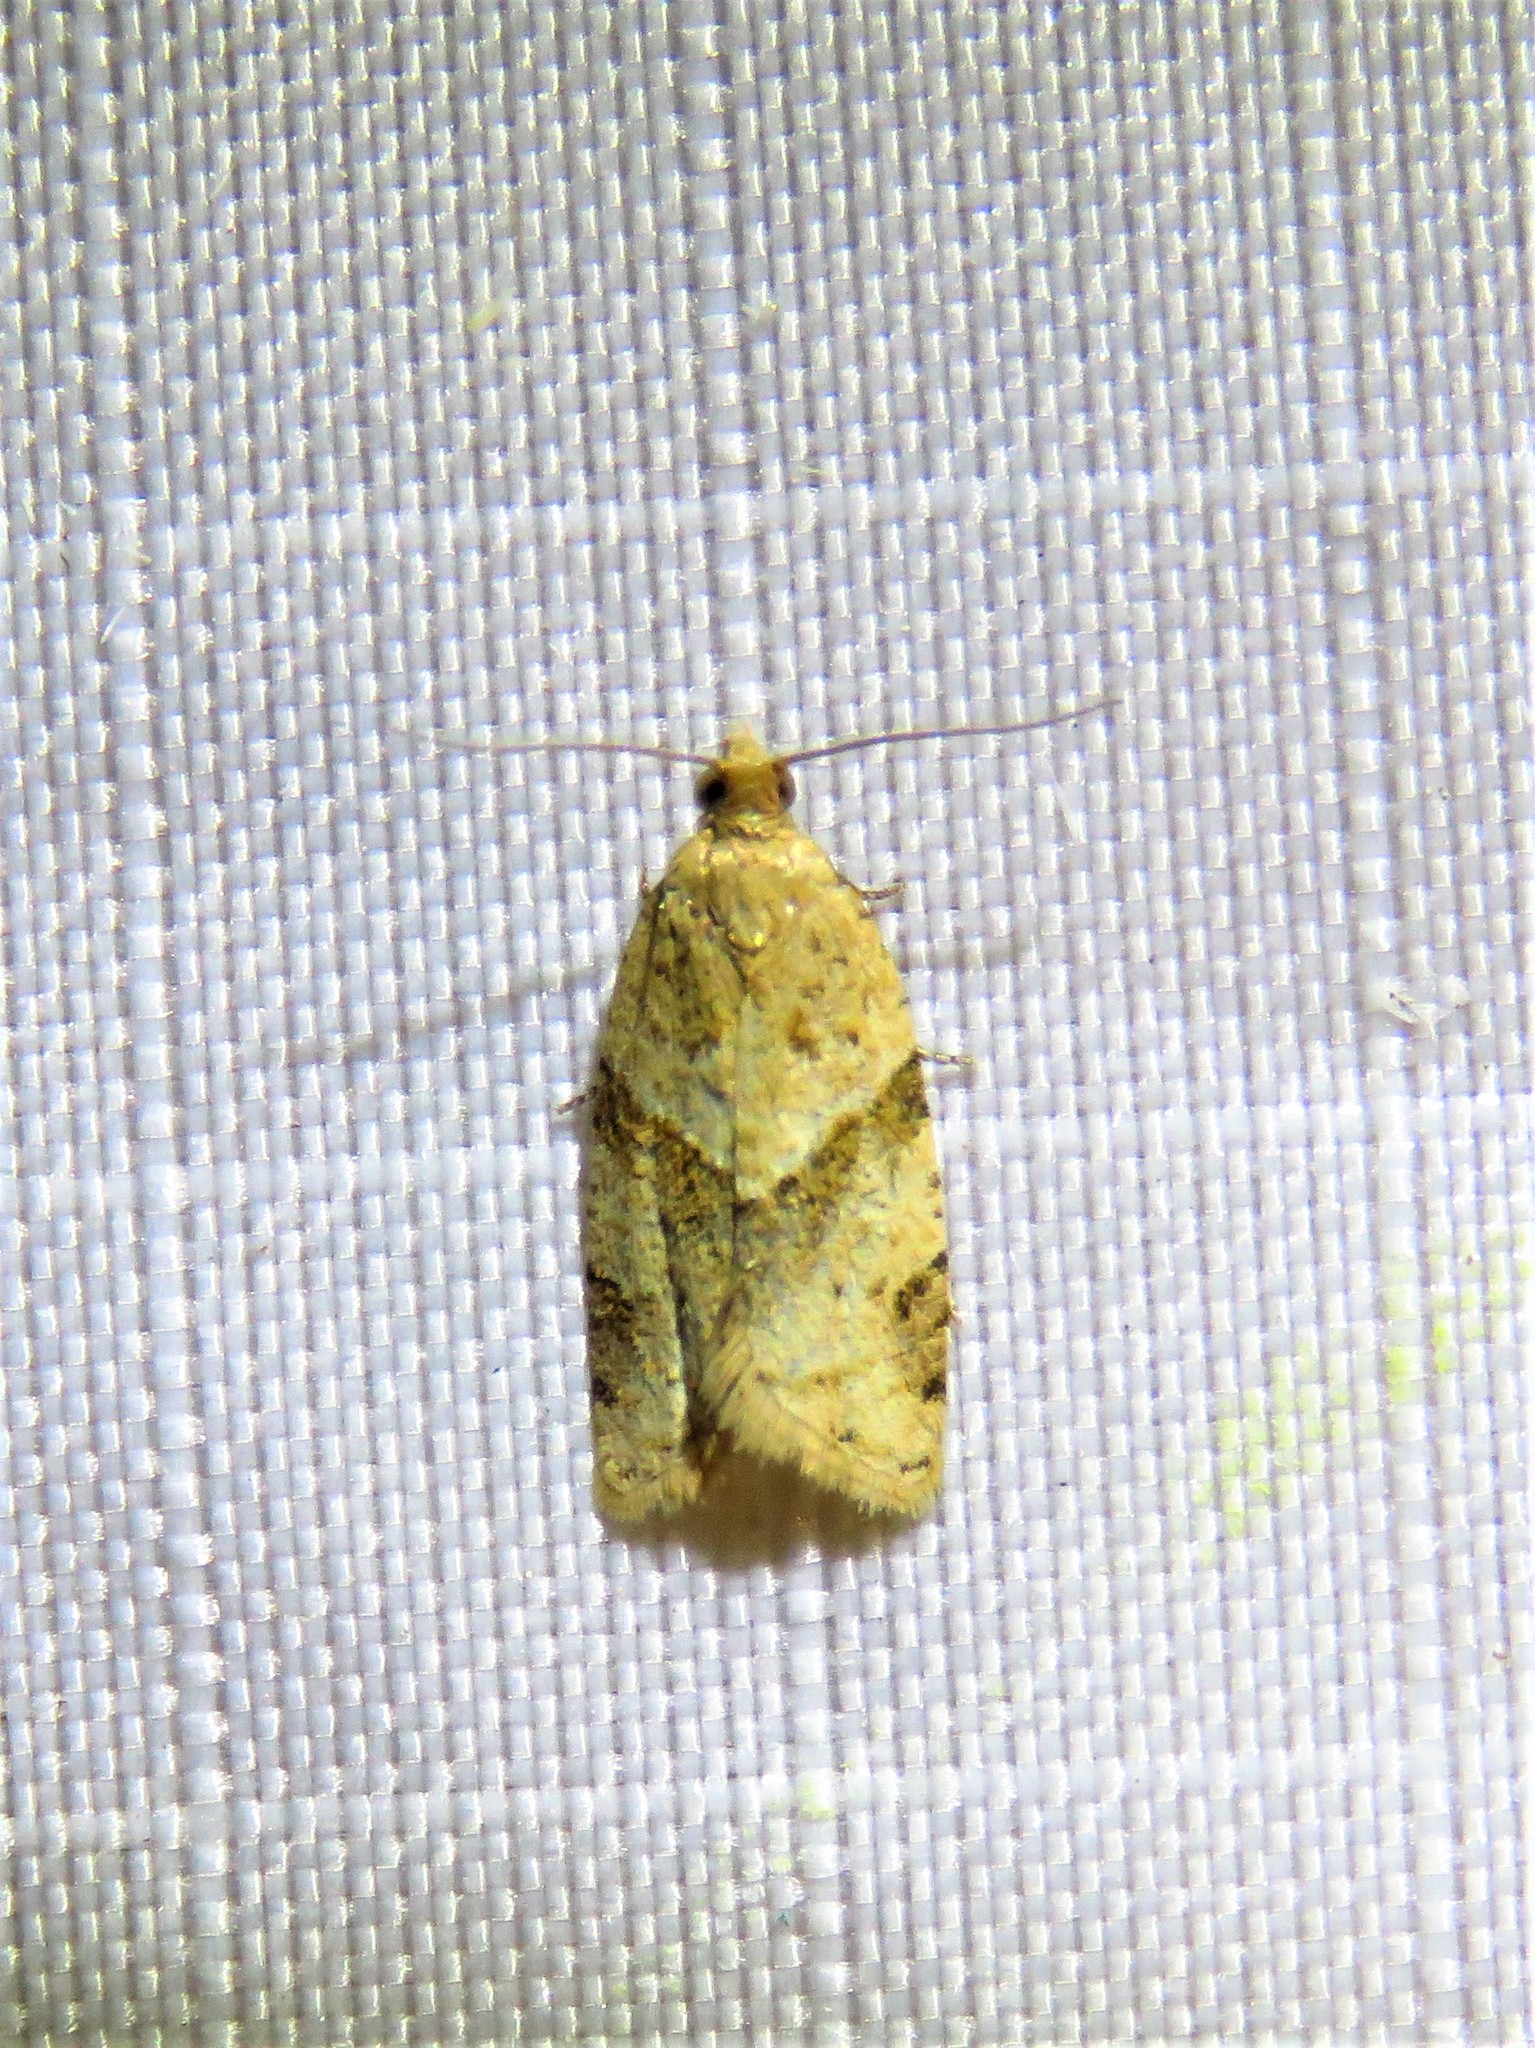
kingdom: Animalia
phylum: Arthropoda
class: Insecta
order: Lepidoptera
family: Tortricidae
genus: Clepsis
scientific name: Clepsis peritana
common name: Garden tortrix
